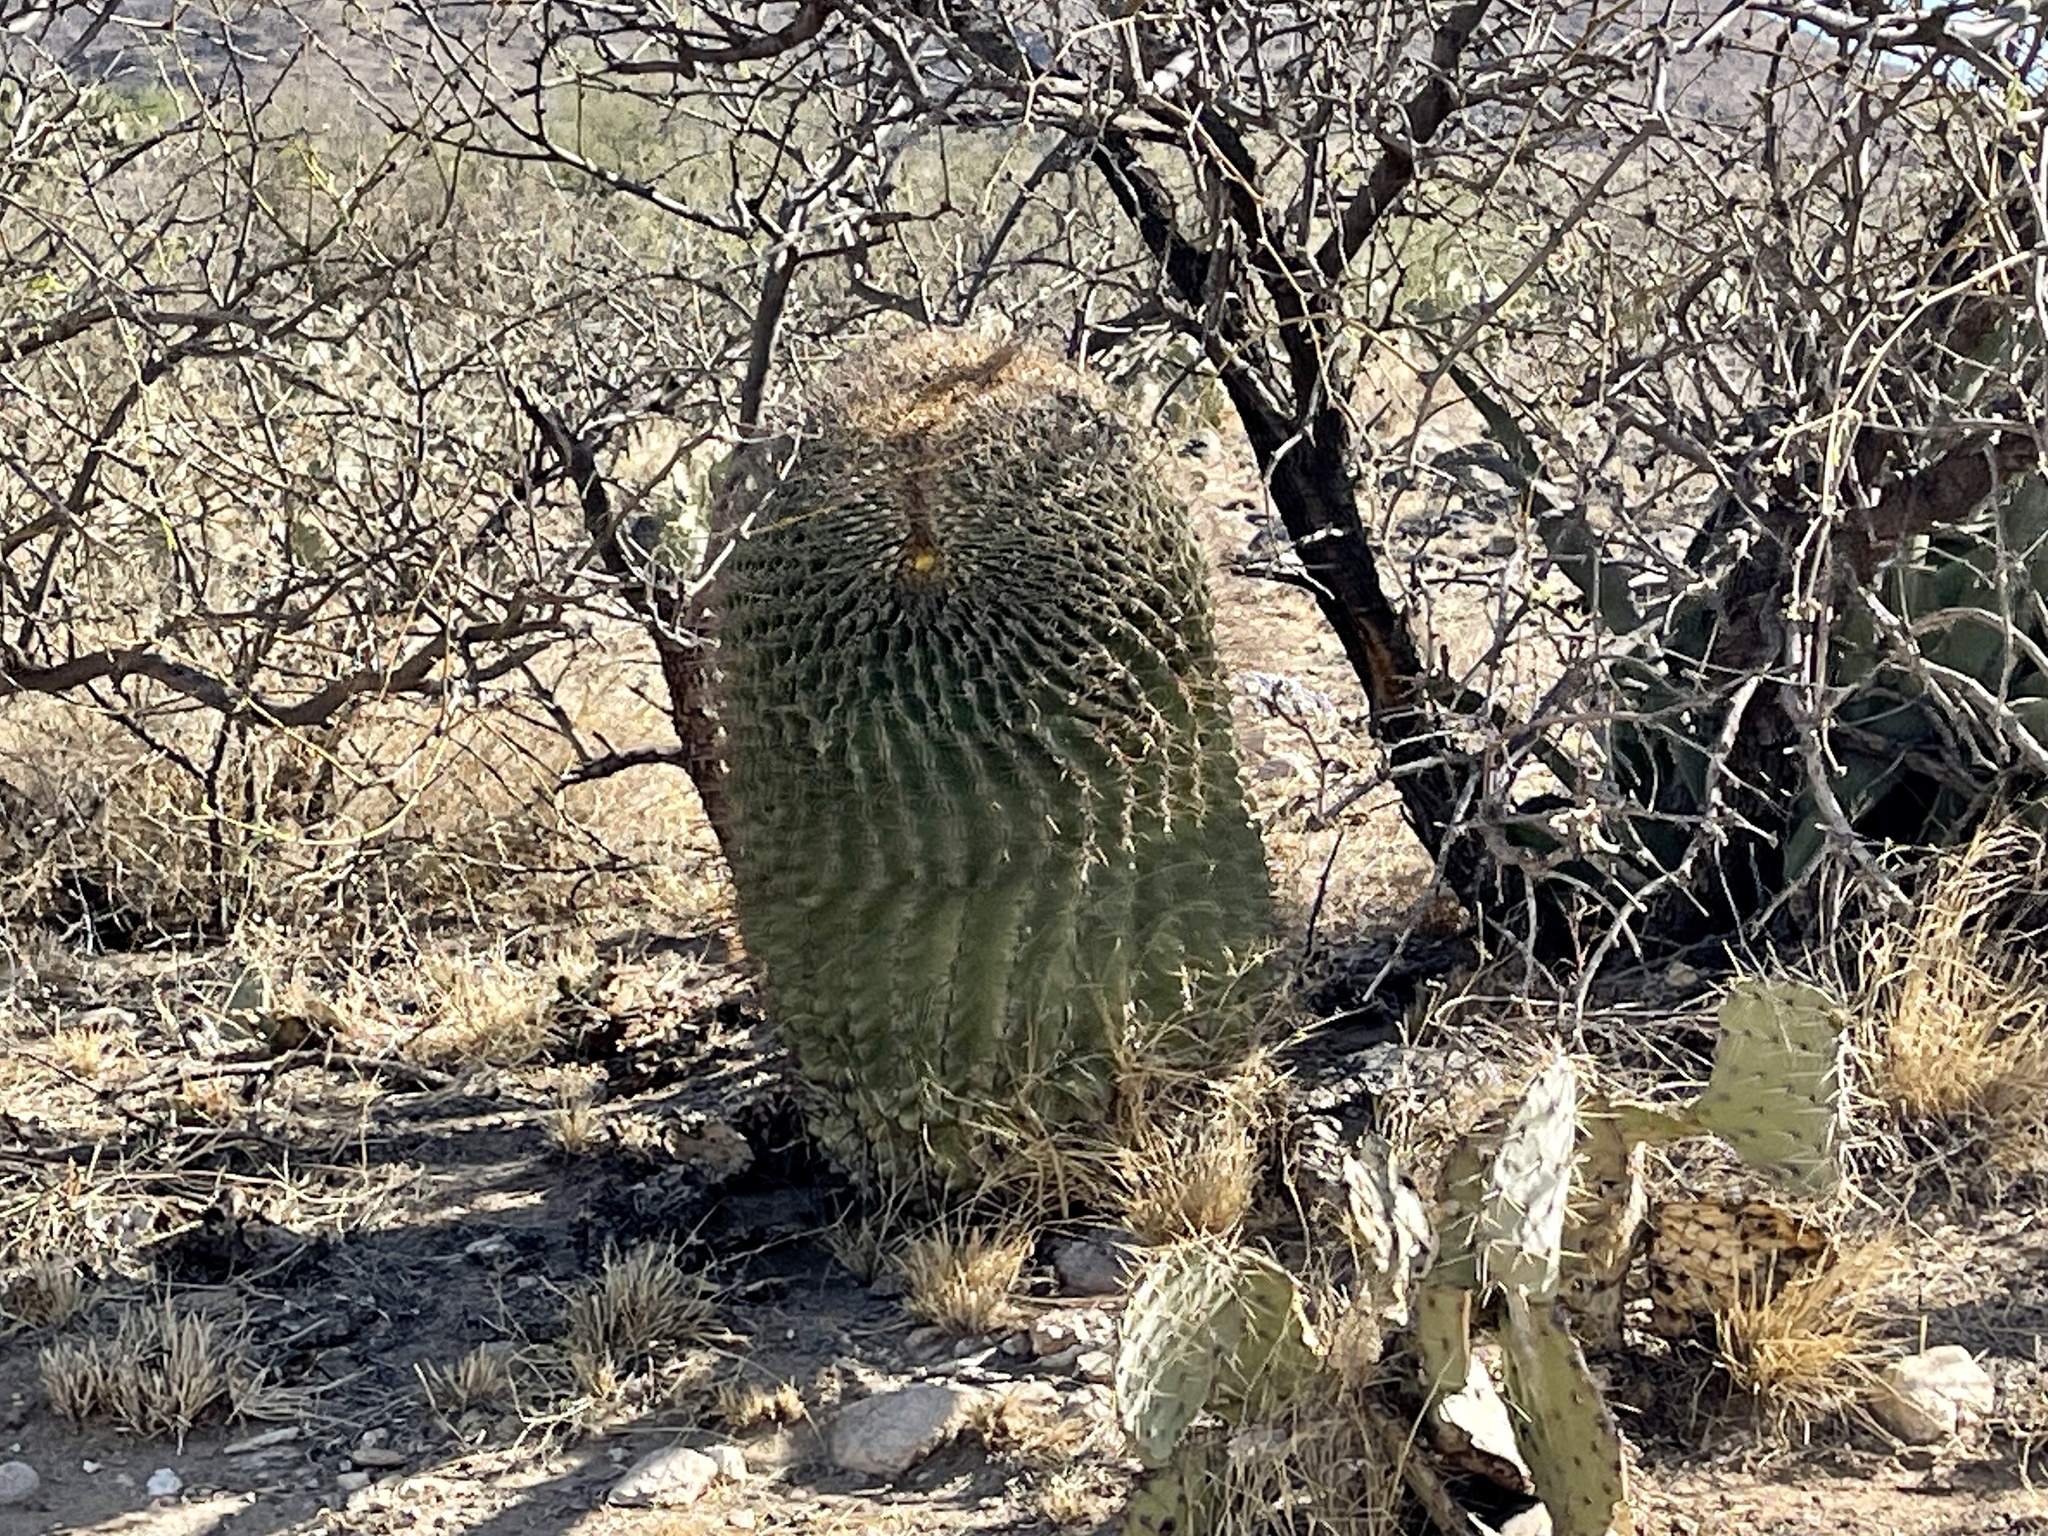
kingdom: Plantae
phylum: Tracheophyta
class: Magnoliopsida
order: Caryophyllales
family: Cactaceae
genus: Ferocactus
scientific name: Ferocactus wislizeni
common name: Candy barrel cactus
